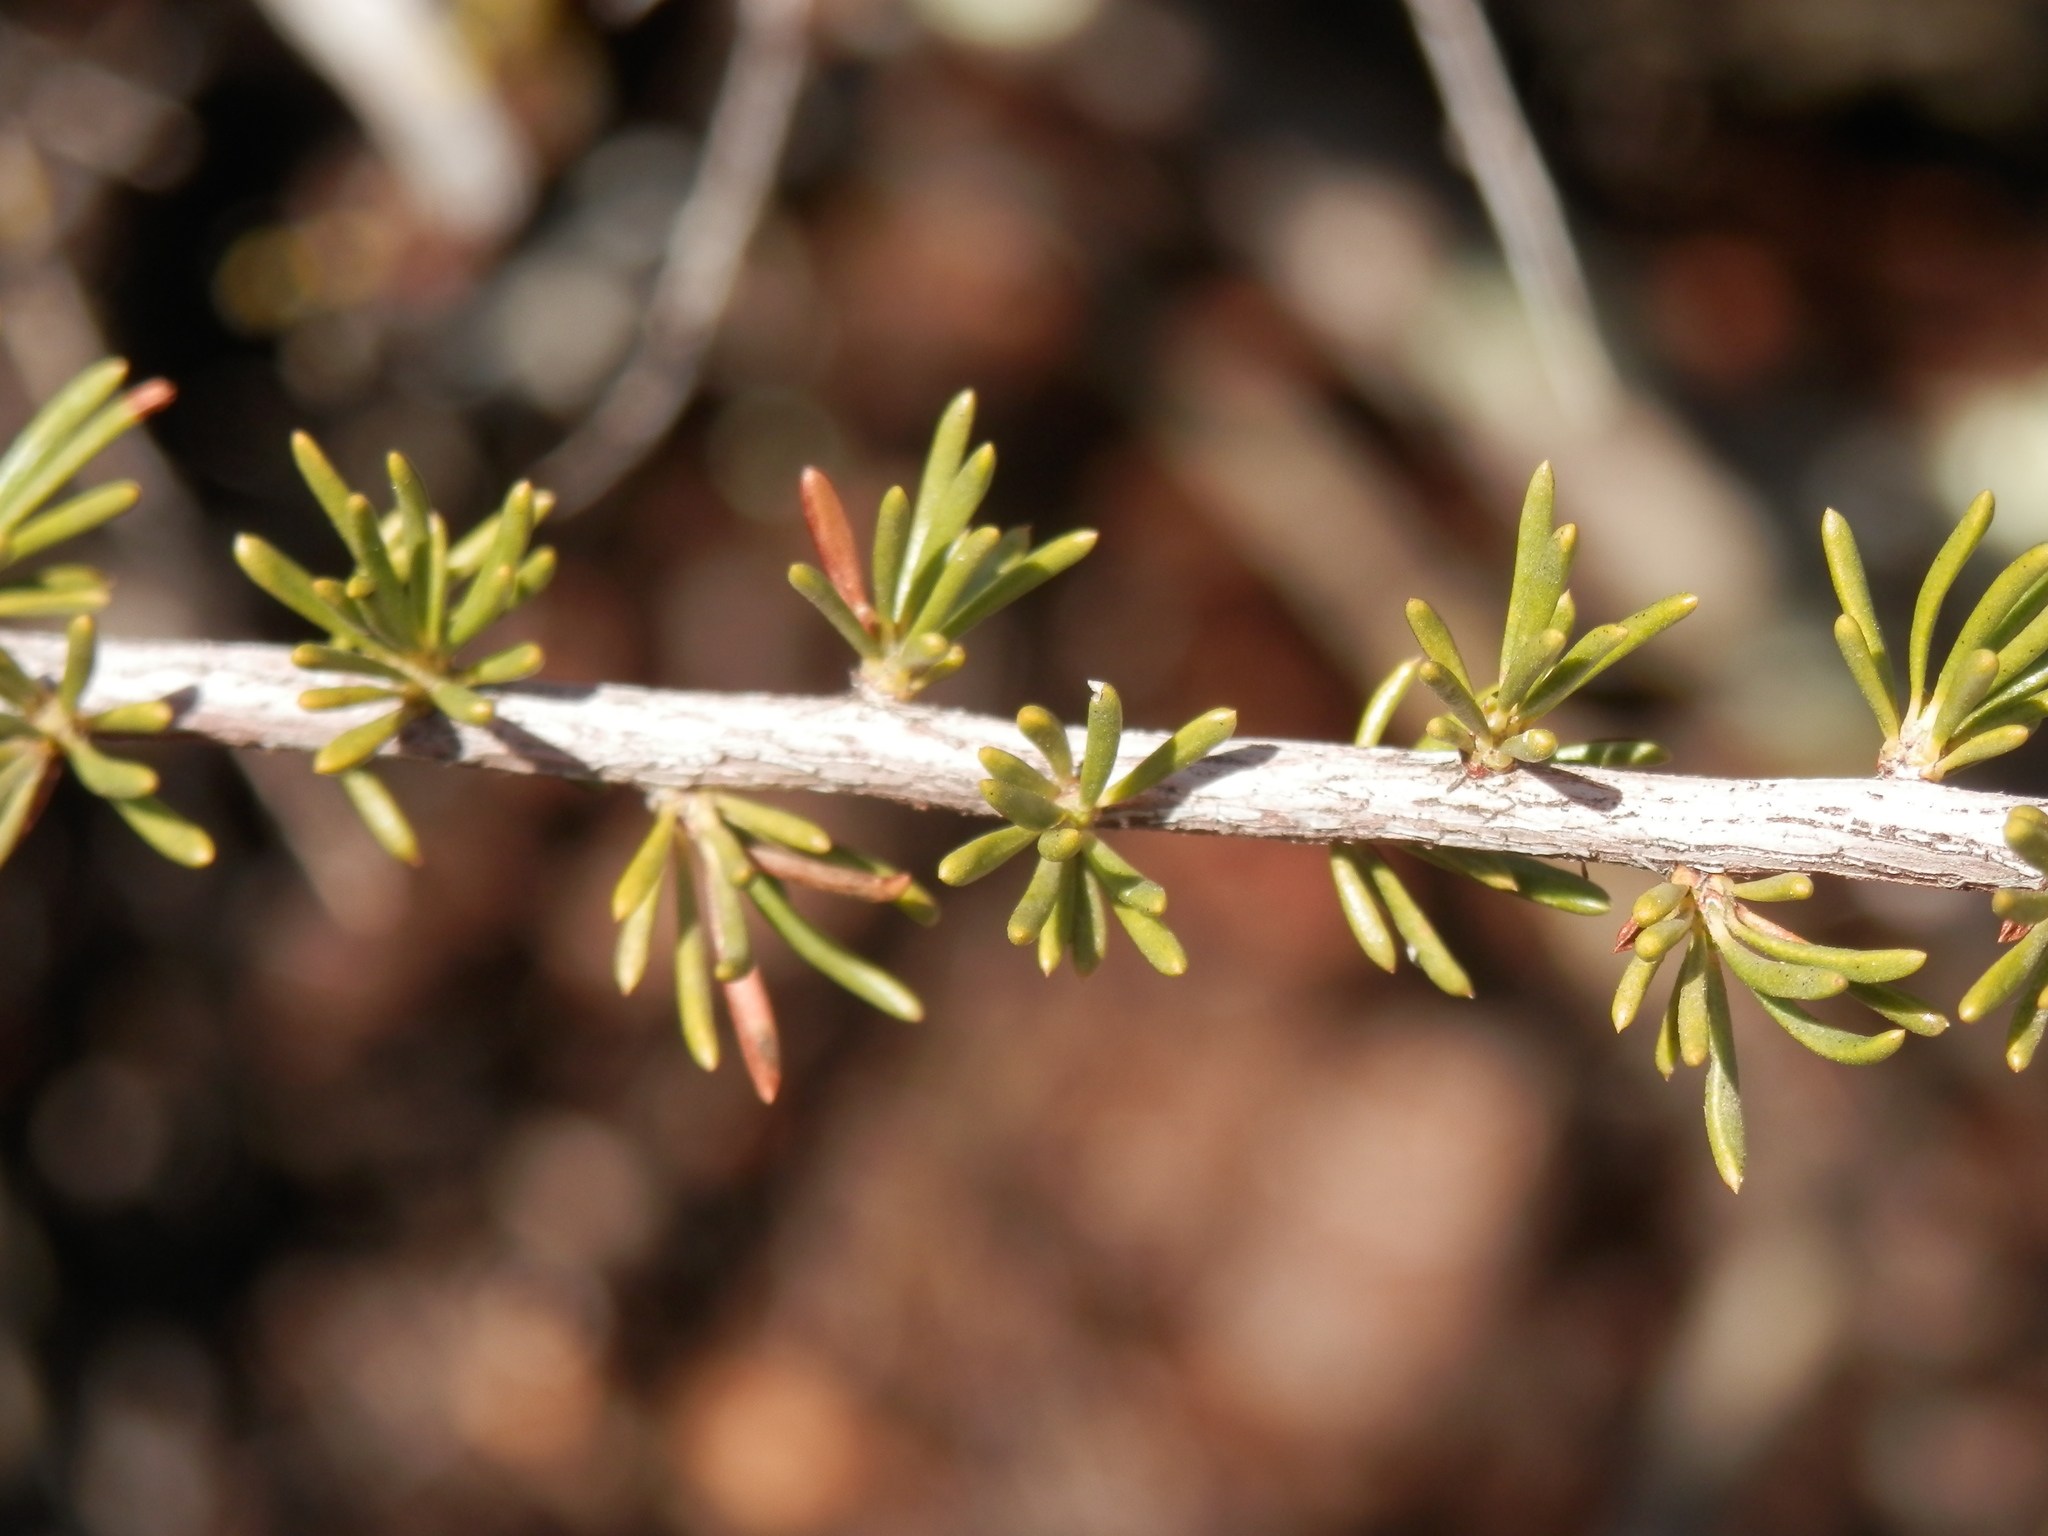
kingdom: Plantae
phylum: Tracheophyta
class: Magnoliopsida
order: Rosales
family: Rosaceae
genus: Adenostoma
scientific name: Adenostoma fasciculatum
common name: Chamise
